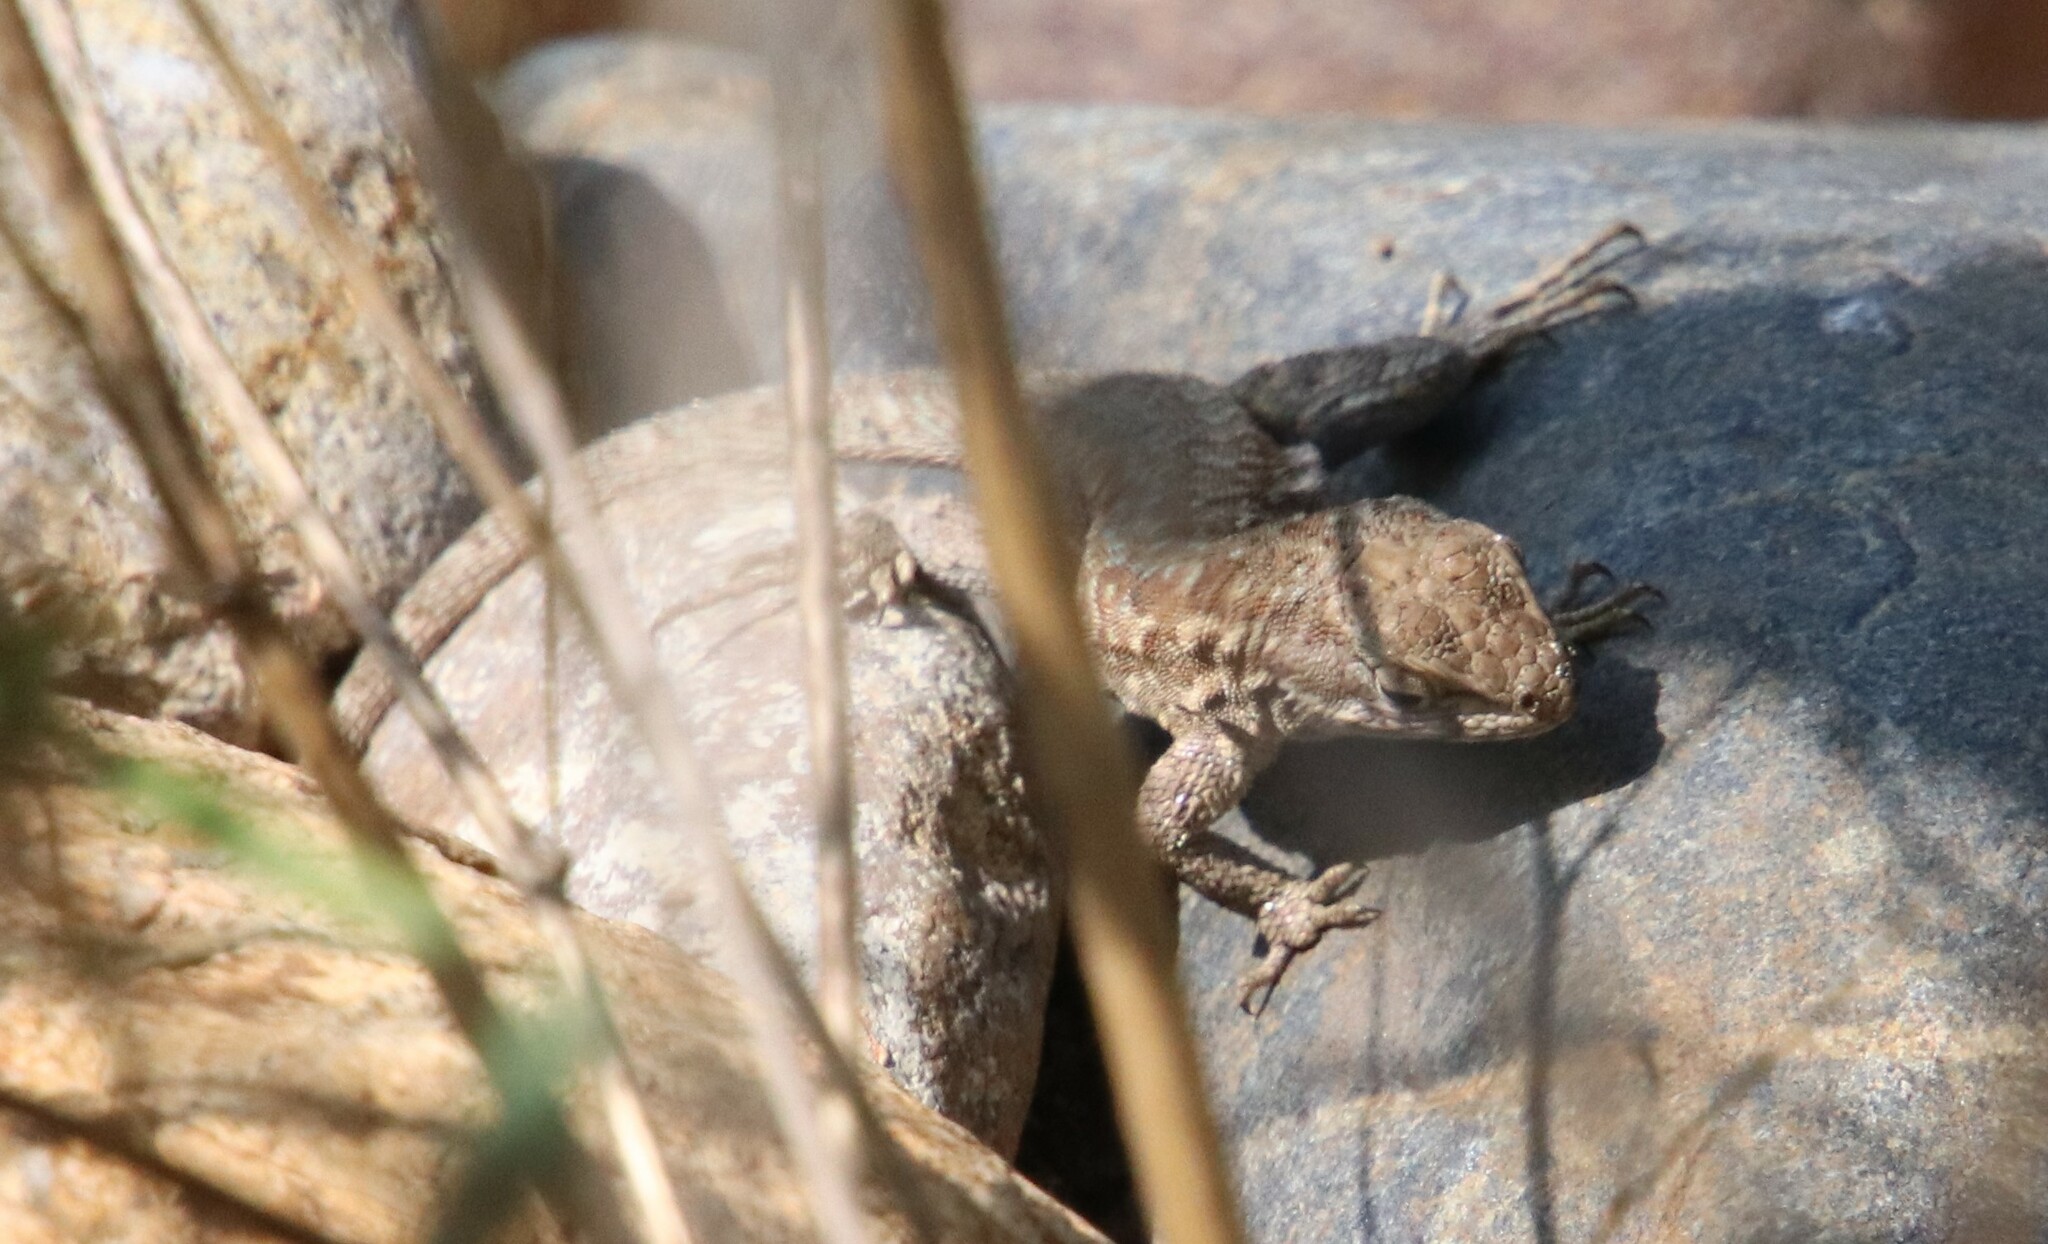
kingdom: Animalia
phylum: Chordata
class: Squamata
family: Phrynosomatidae
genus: Uta
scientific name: Uta stansburiana
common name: Side-blotched lizard
